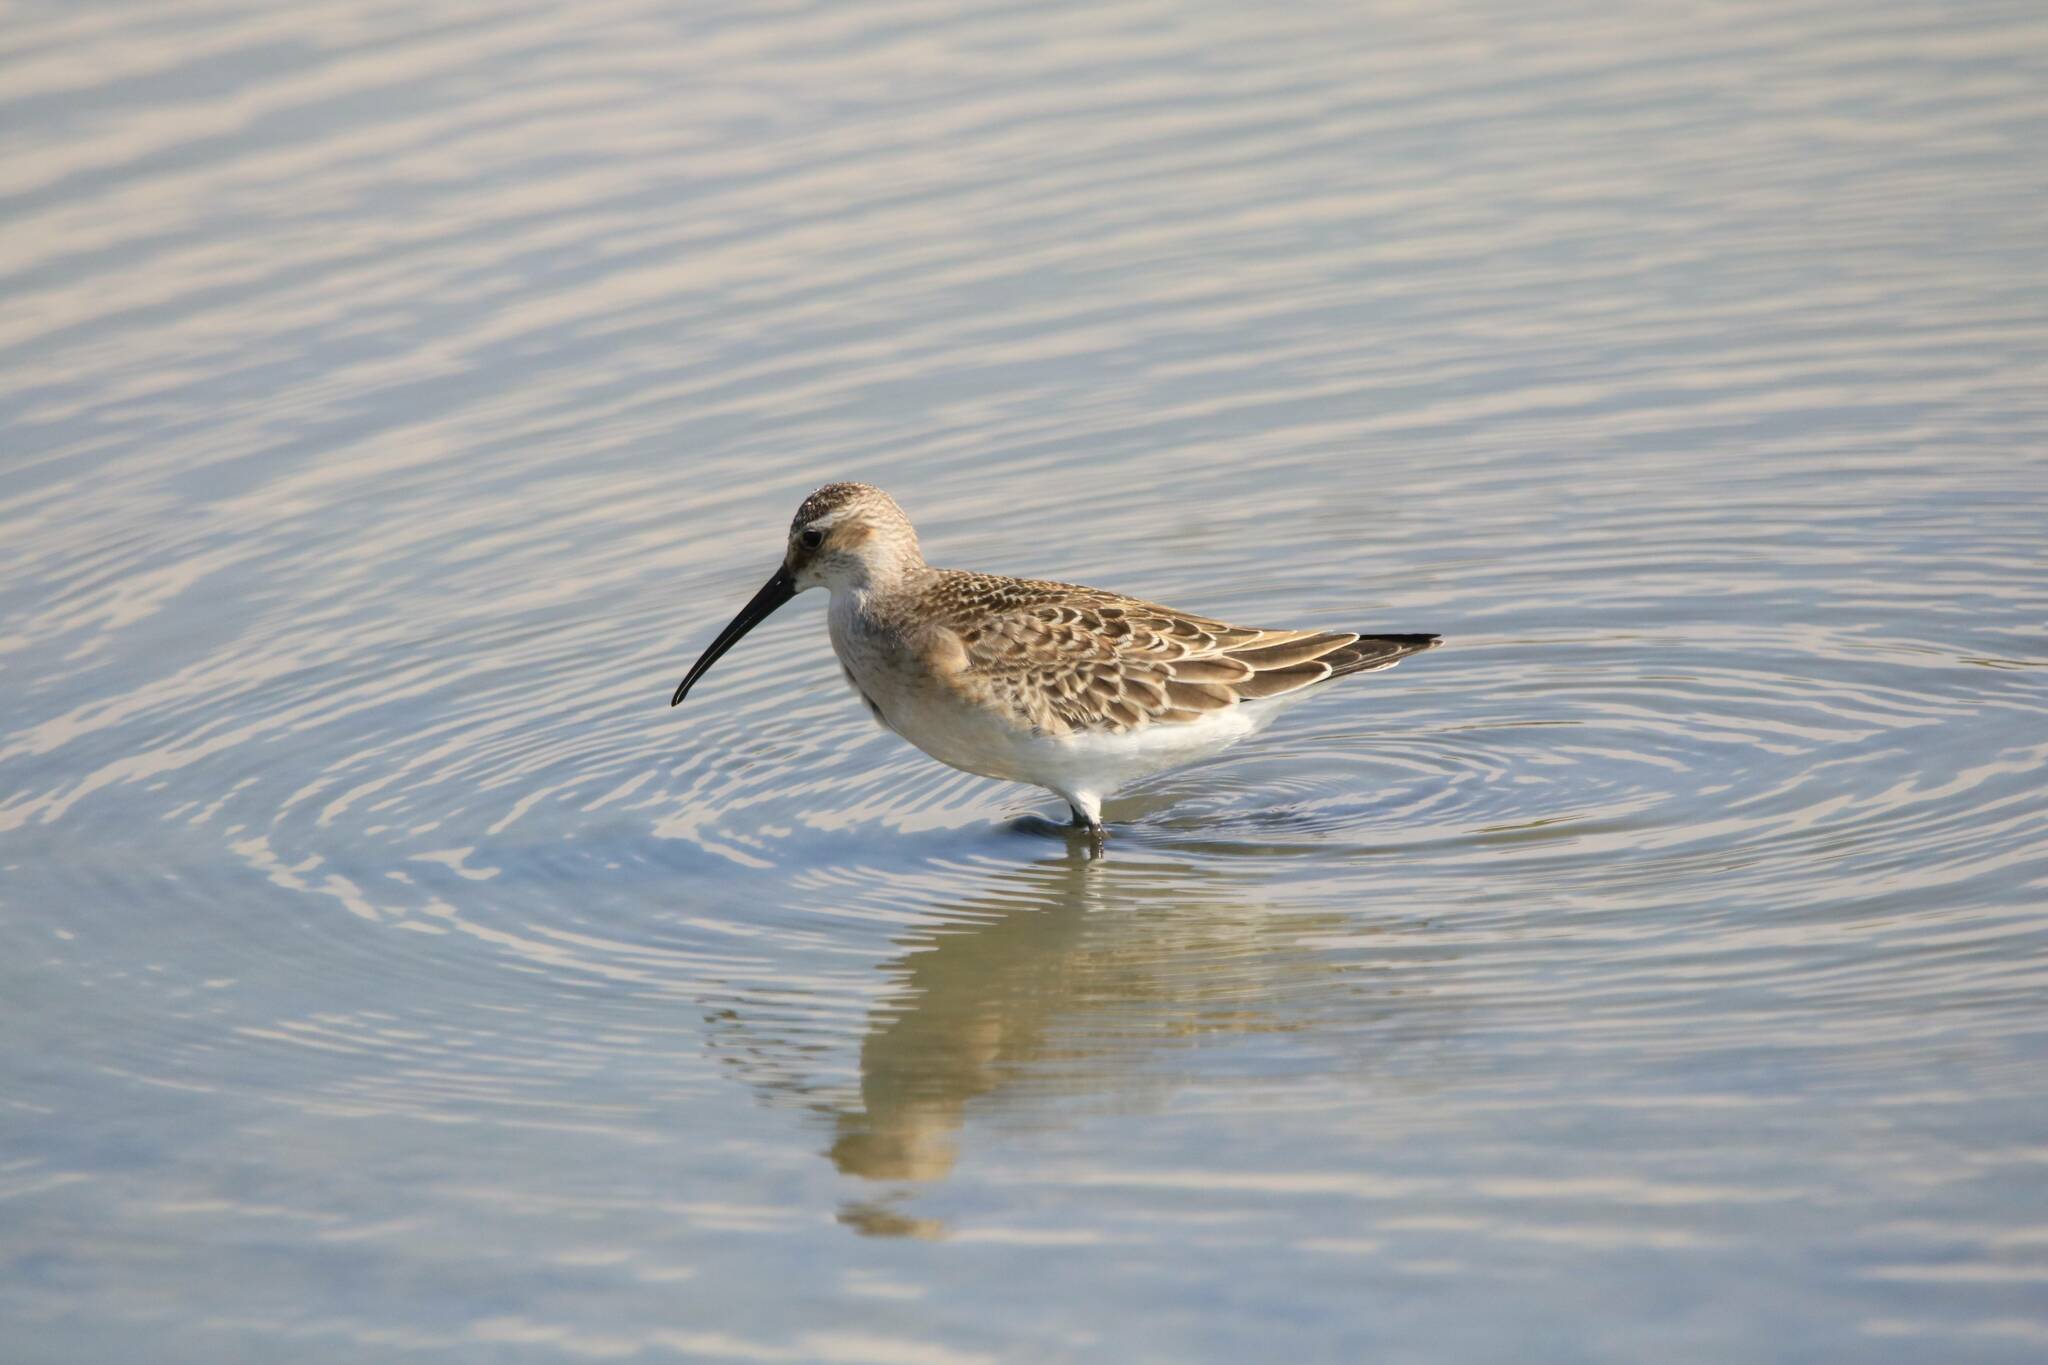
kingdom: Animalia
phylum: Chordata
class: Aves
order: Charadriiformes
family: Scolopacidae
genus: Calidris
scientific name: Calidris ferruginea
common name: Curlew sandpiper
